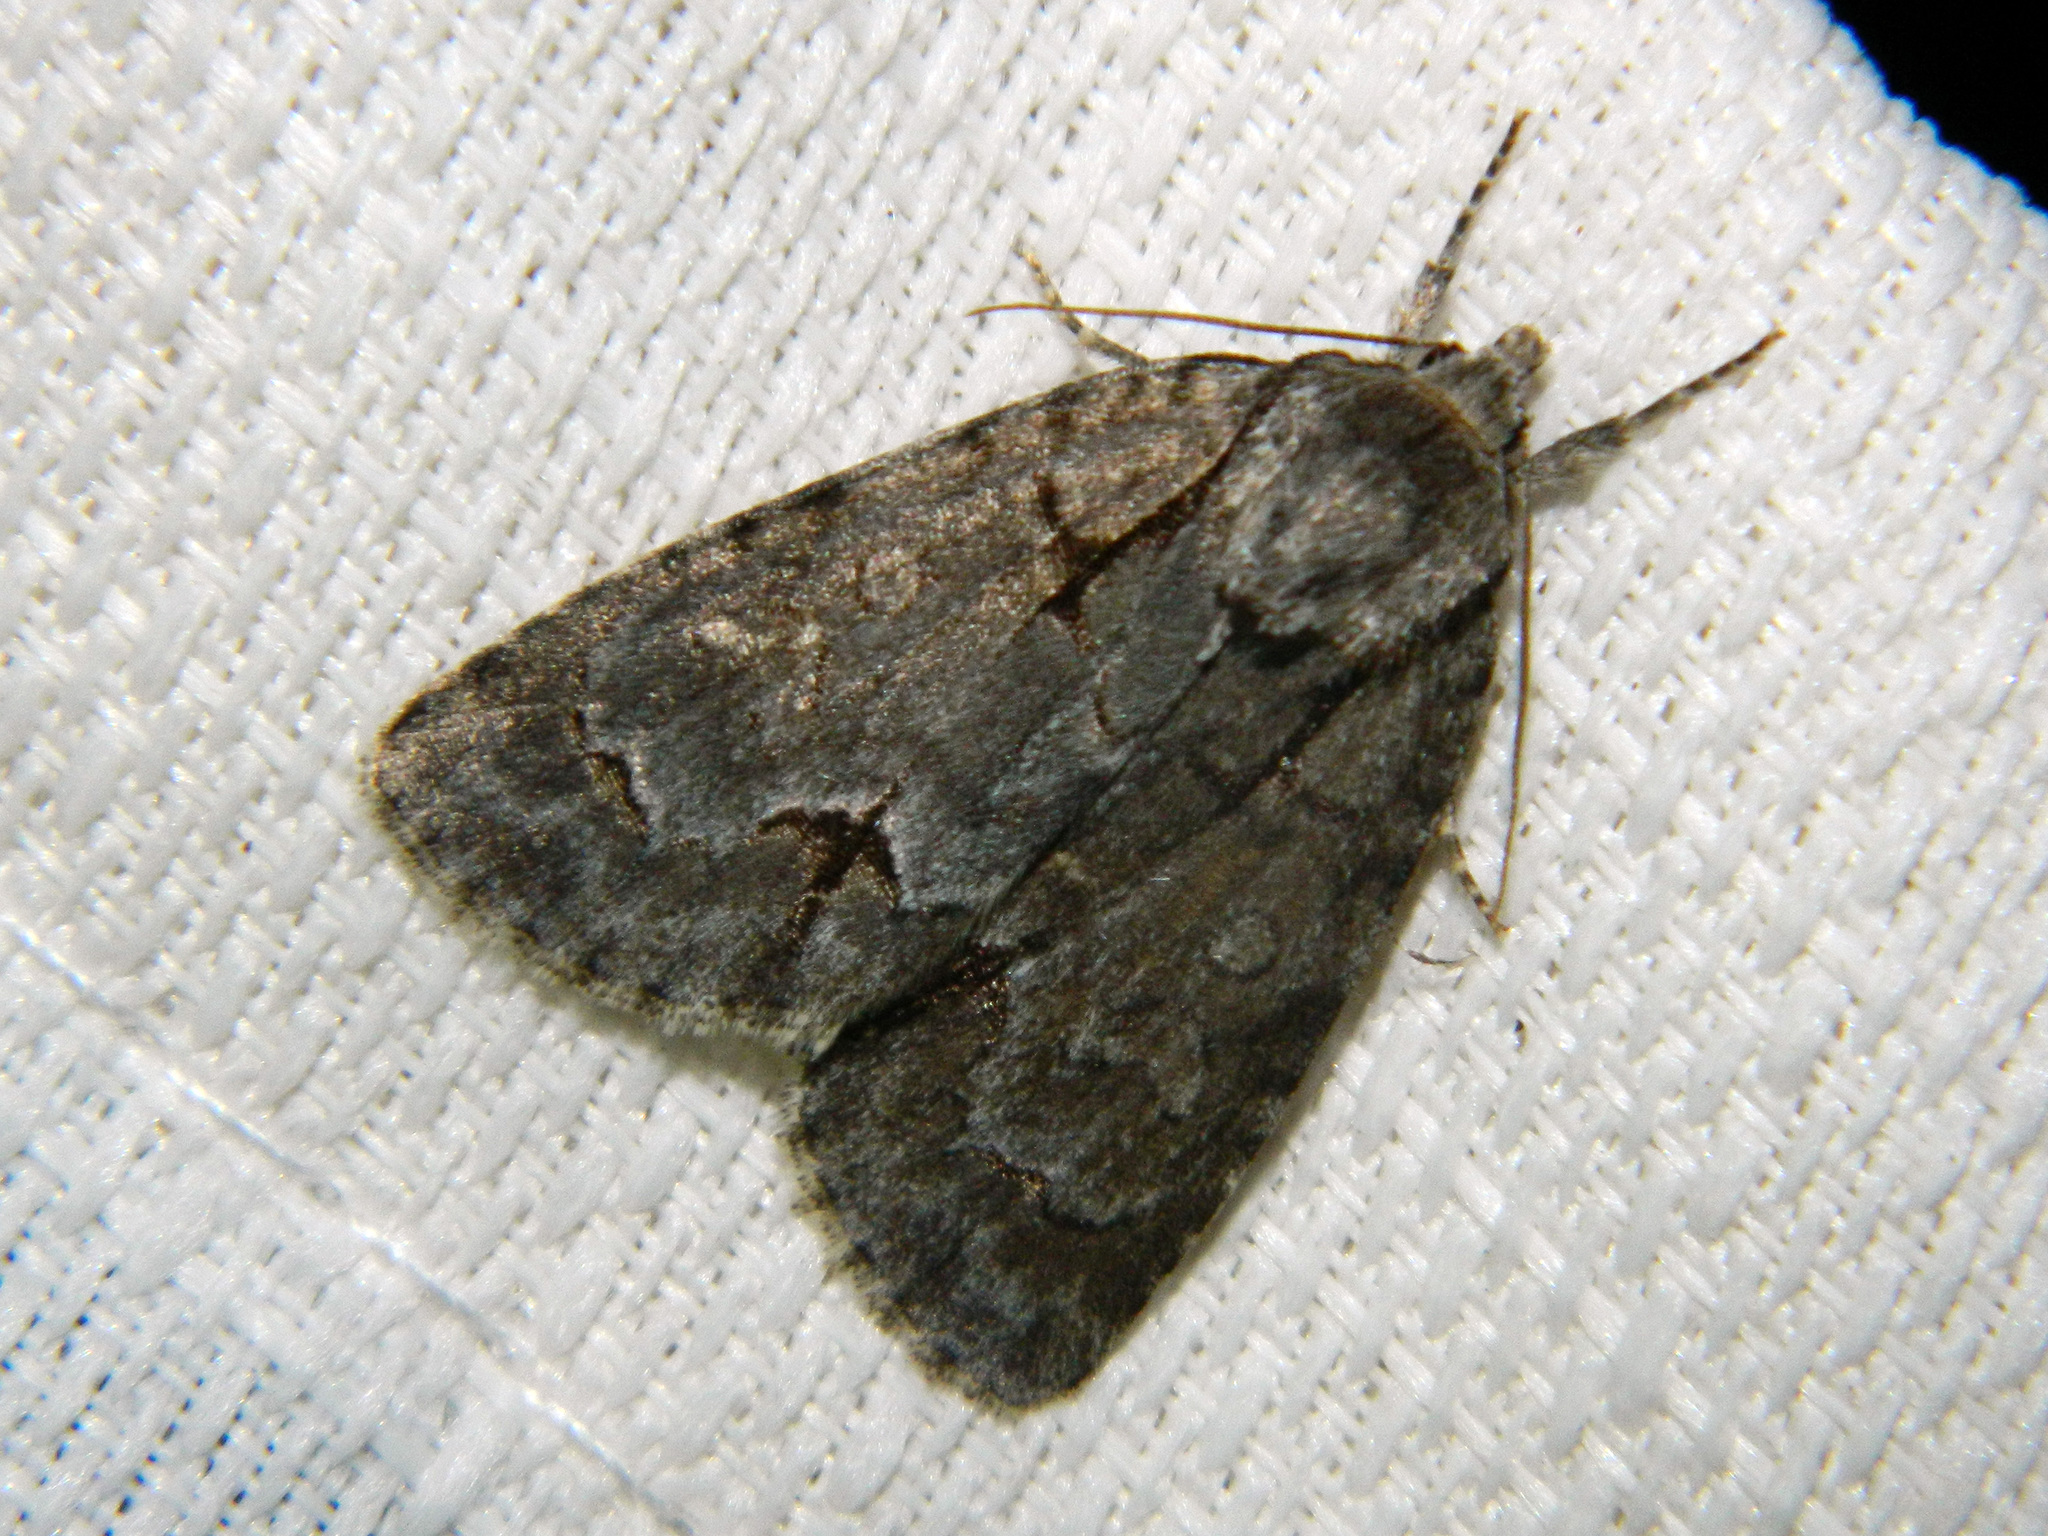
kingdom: Animalia
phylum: Arthropoda
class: Insecta
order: Lepidoptera
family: Noctuidae
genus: Acronicta
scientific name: Acronicta grisea
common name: Gray dagger
